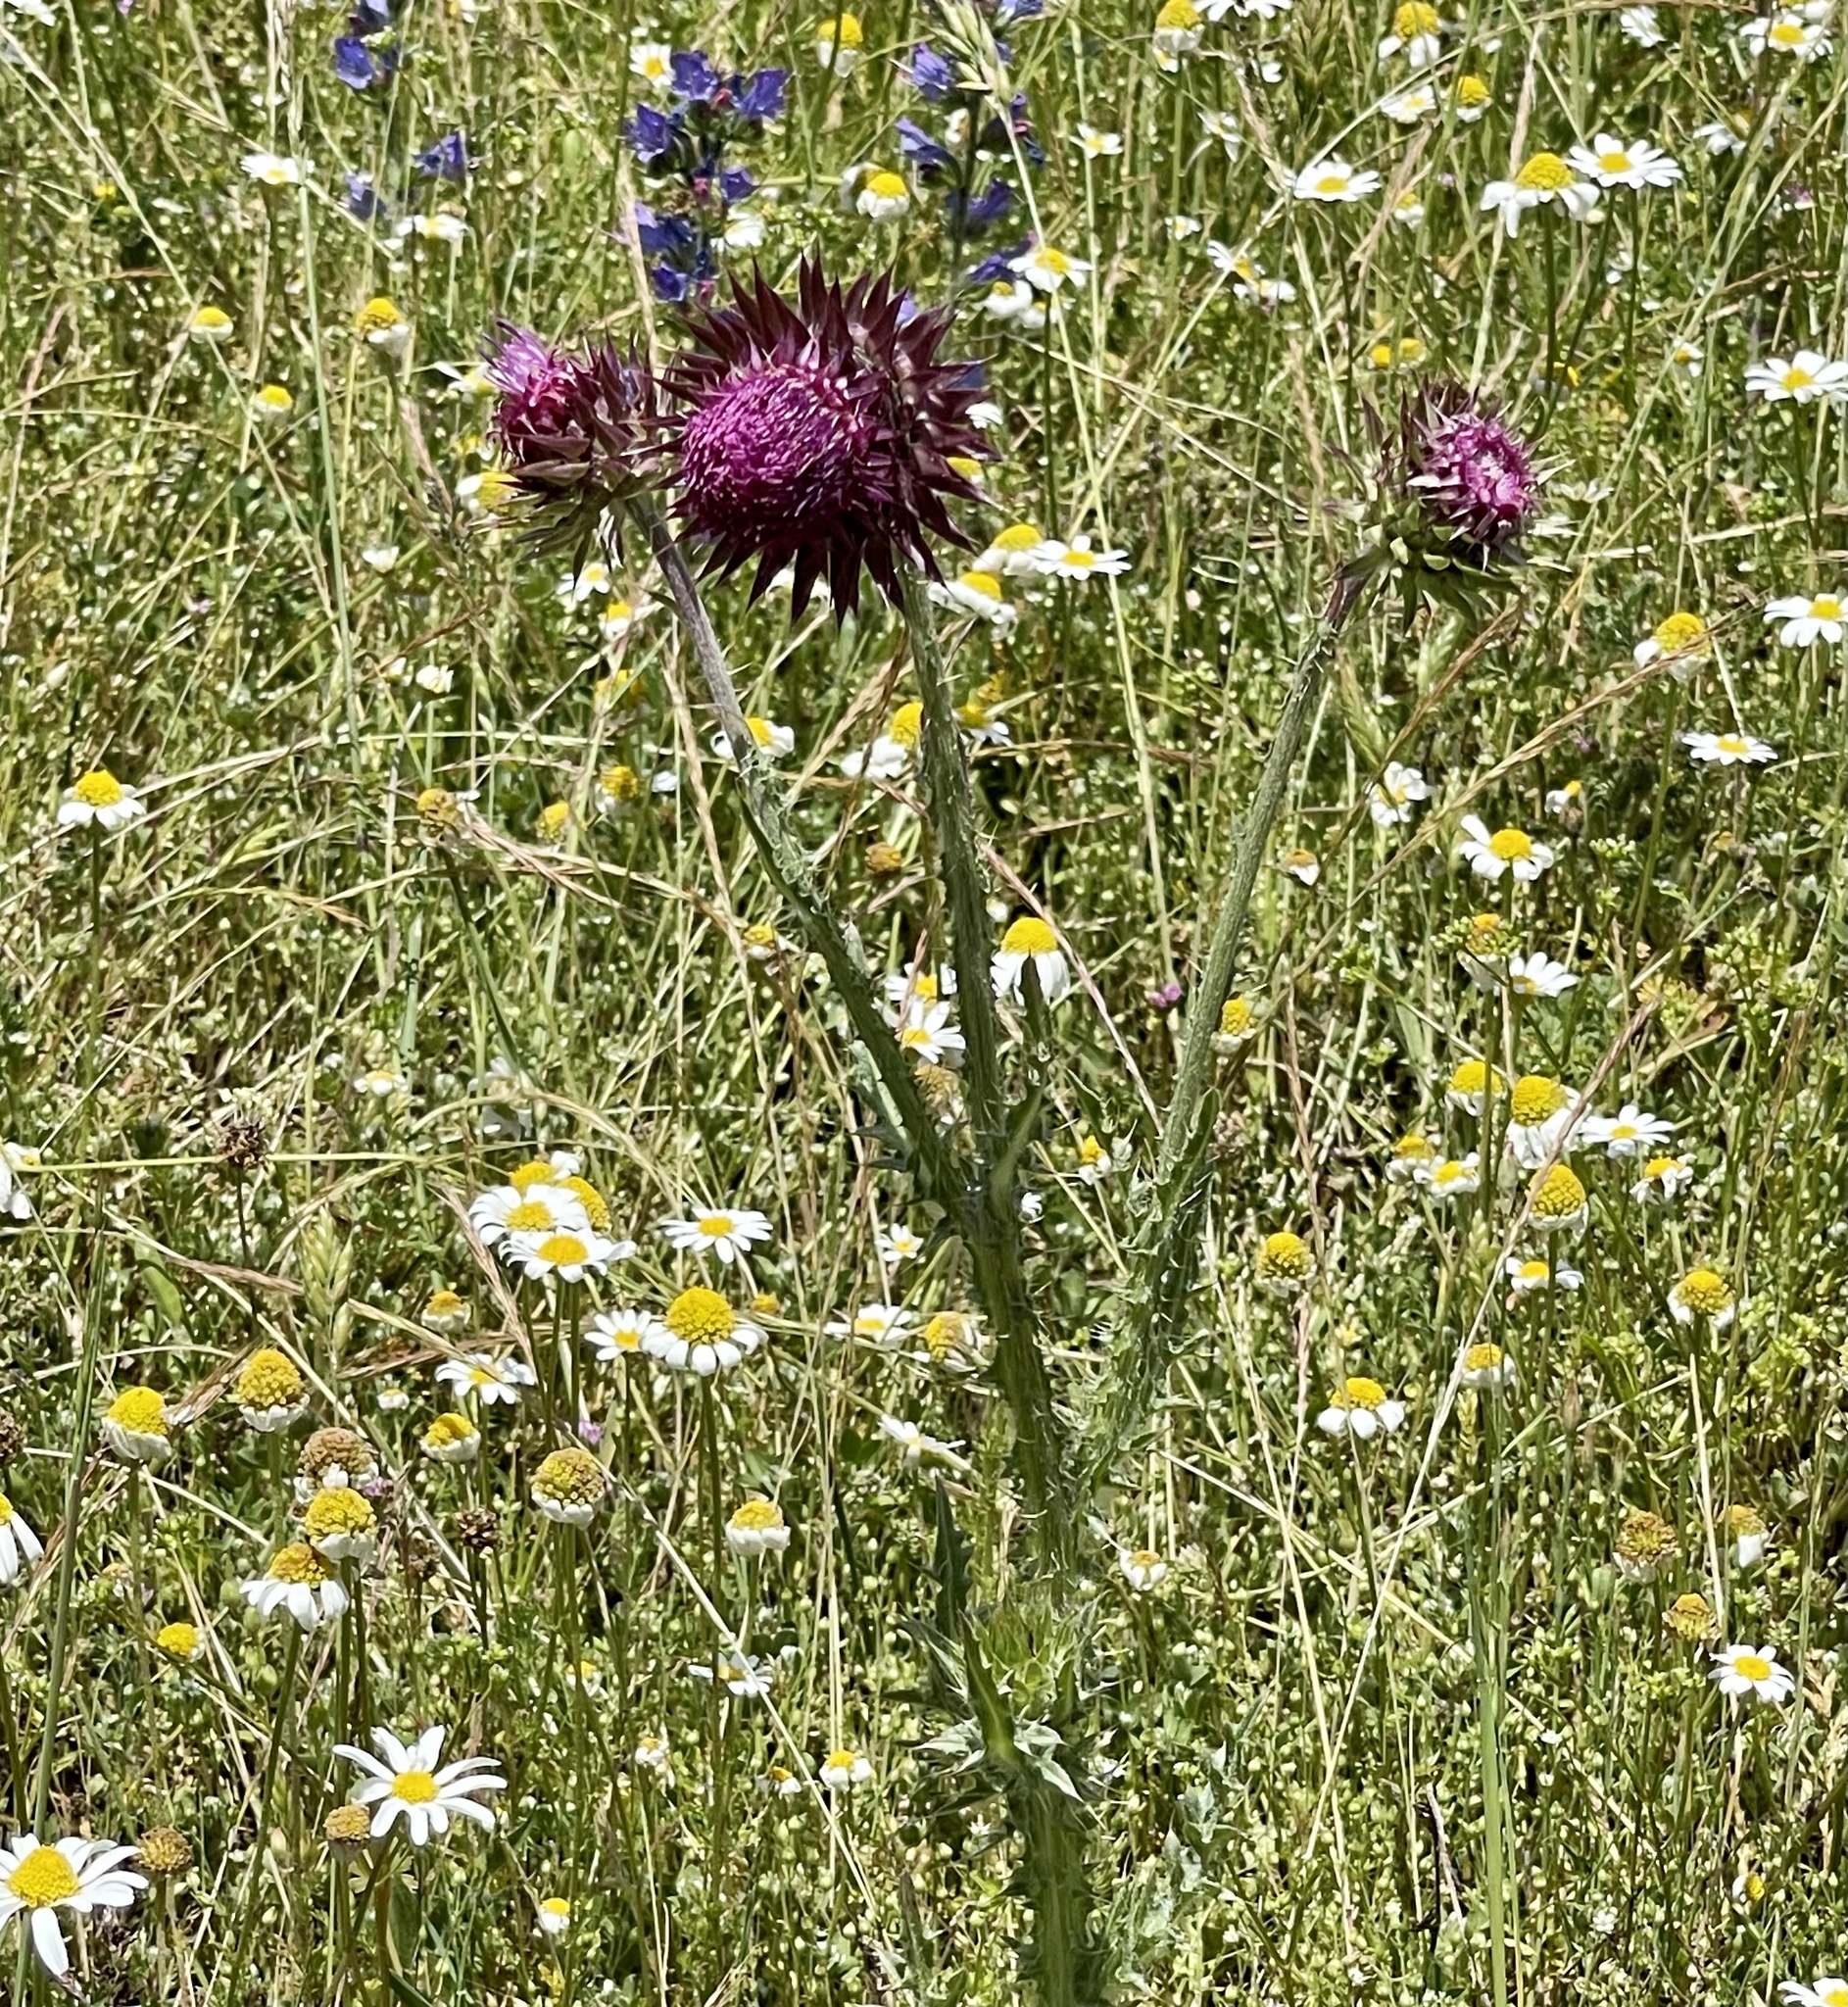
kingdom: Plantae
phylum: Tracheophyta
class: Magnoliopsida
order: Asterales
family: Asteraceae
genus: Carduus
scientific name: Carduus nutans
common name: Musk thistle
